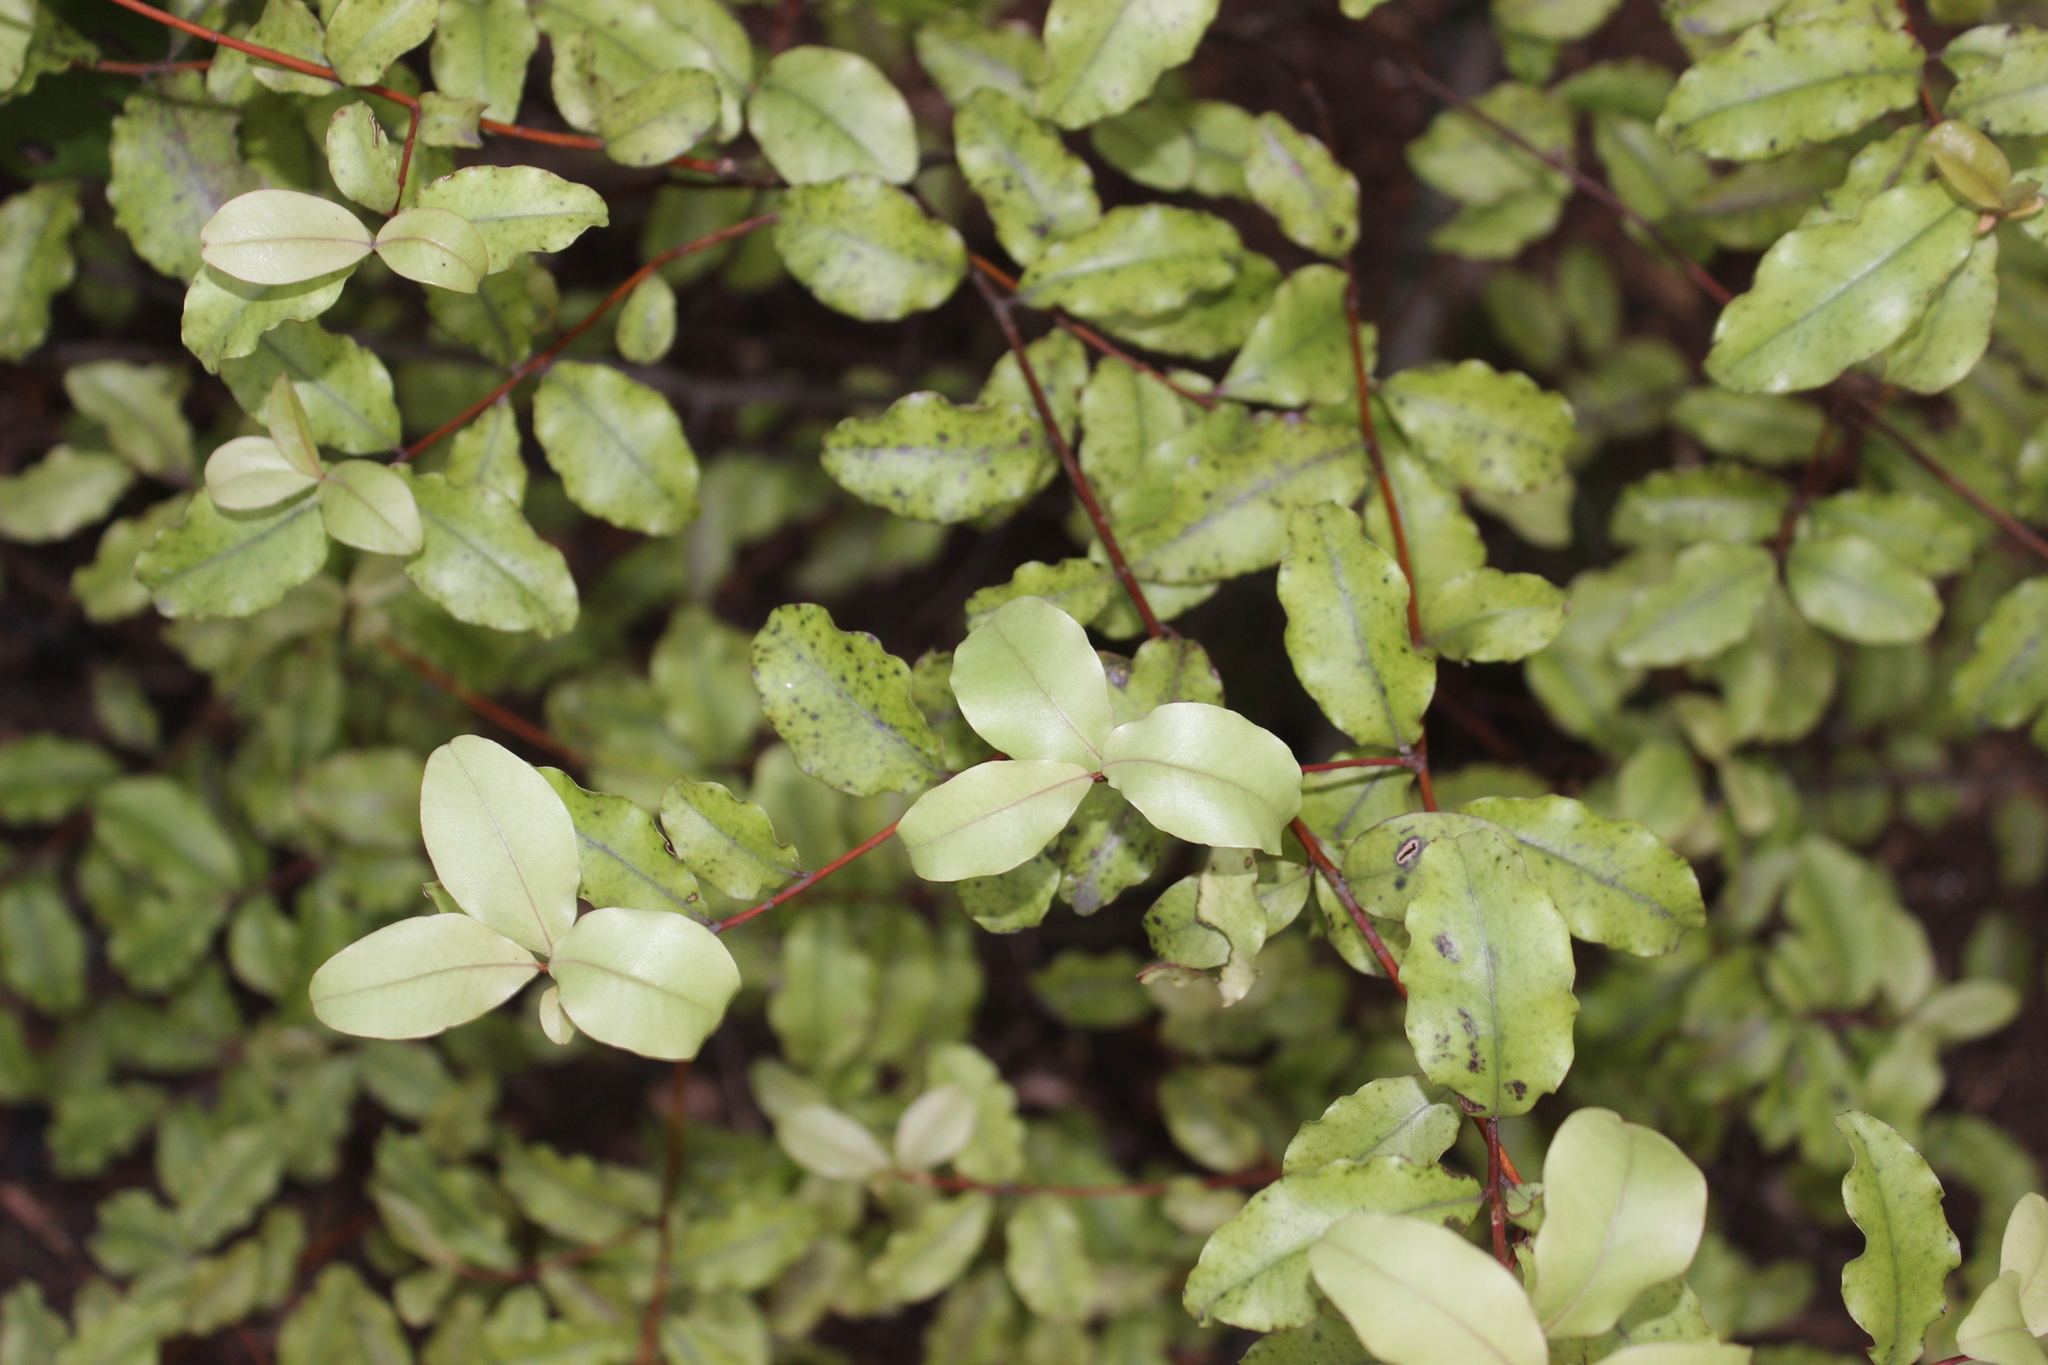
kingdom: Plantae
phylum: Tracheophyta
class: Magnoliopsida
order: Ericales
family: Primulaceae
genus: Myrsine
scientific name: Myrsine australis
